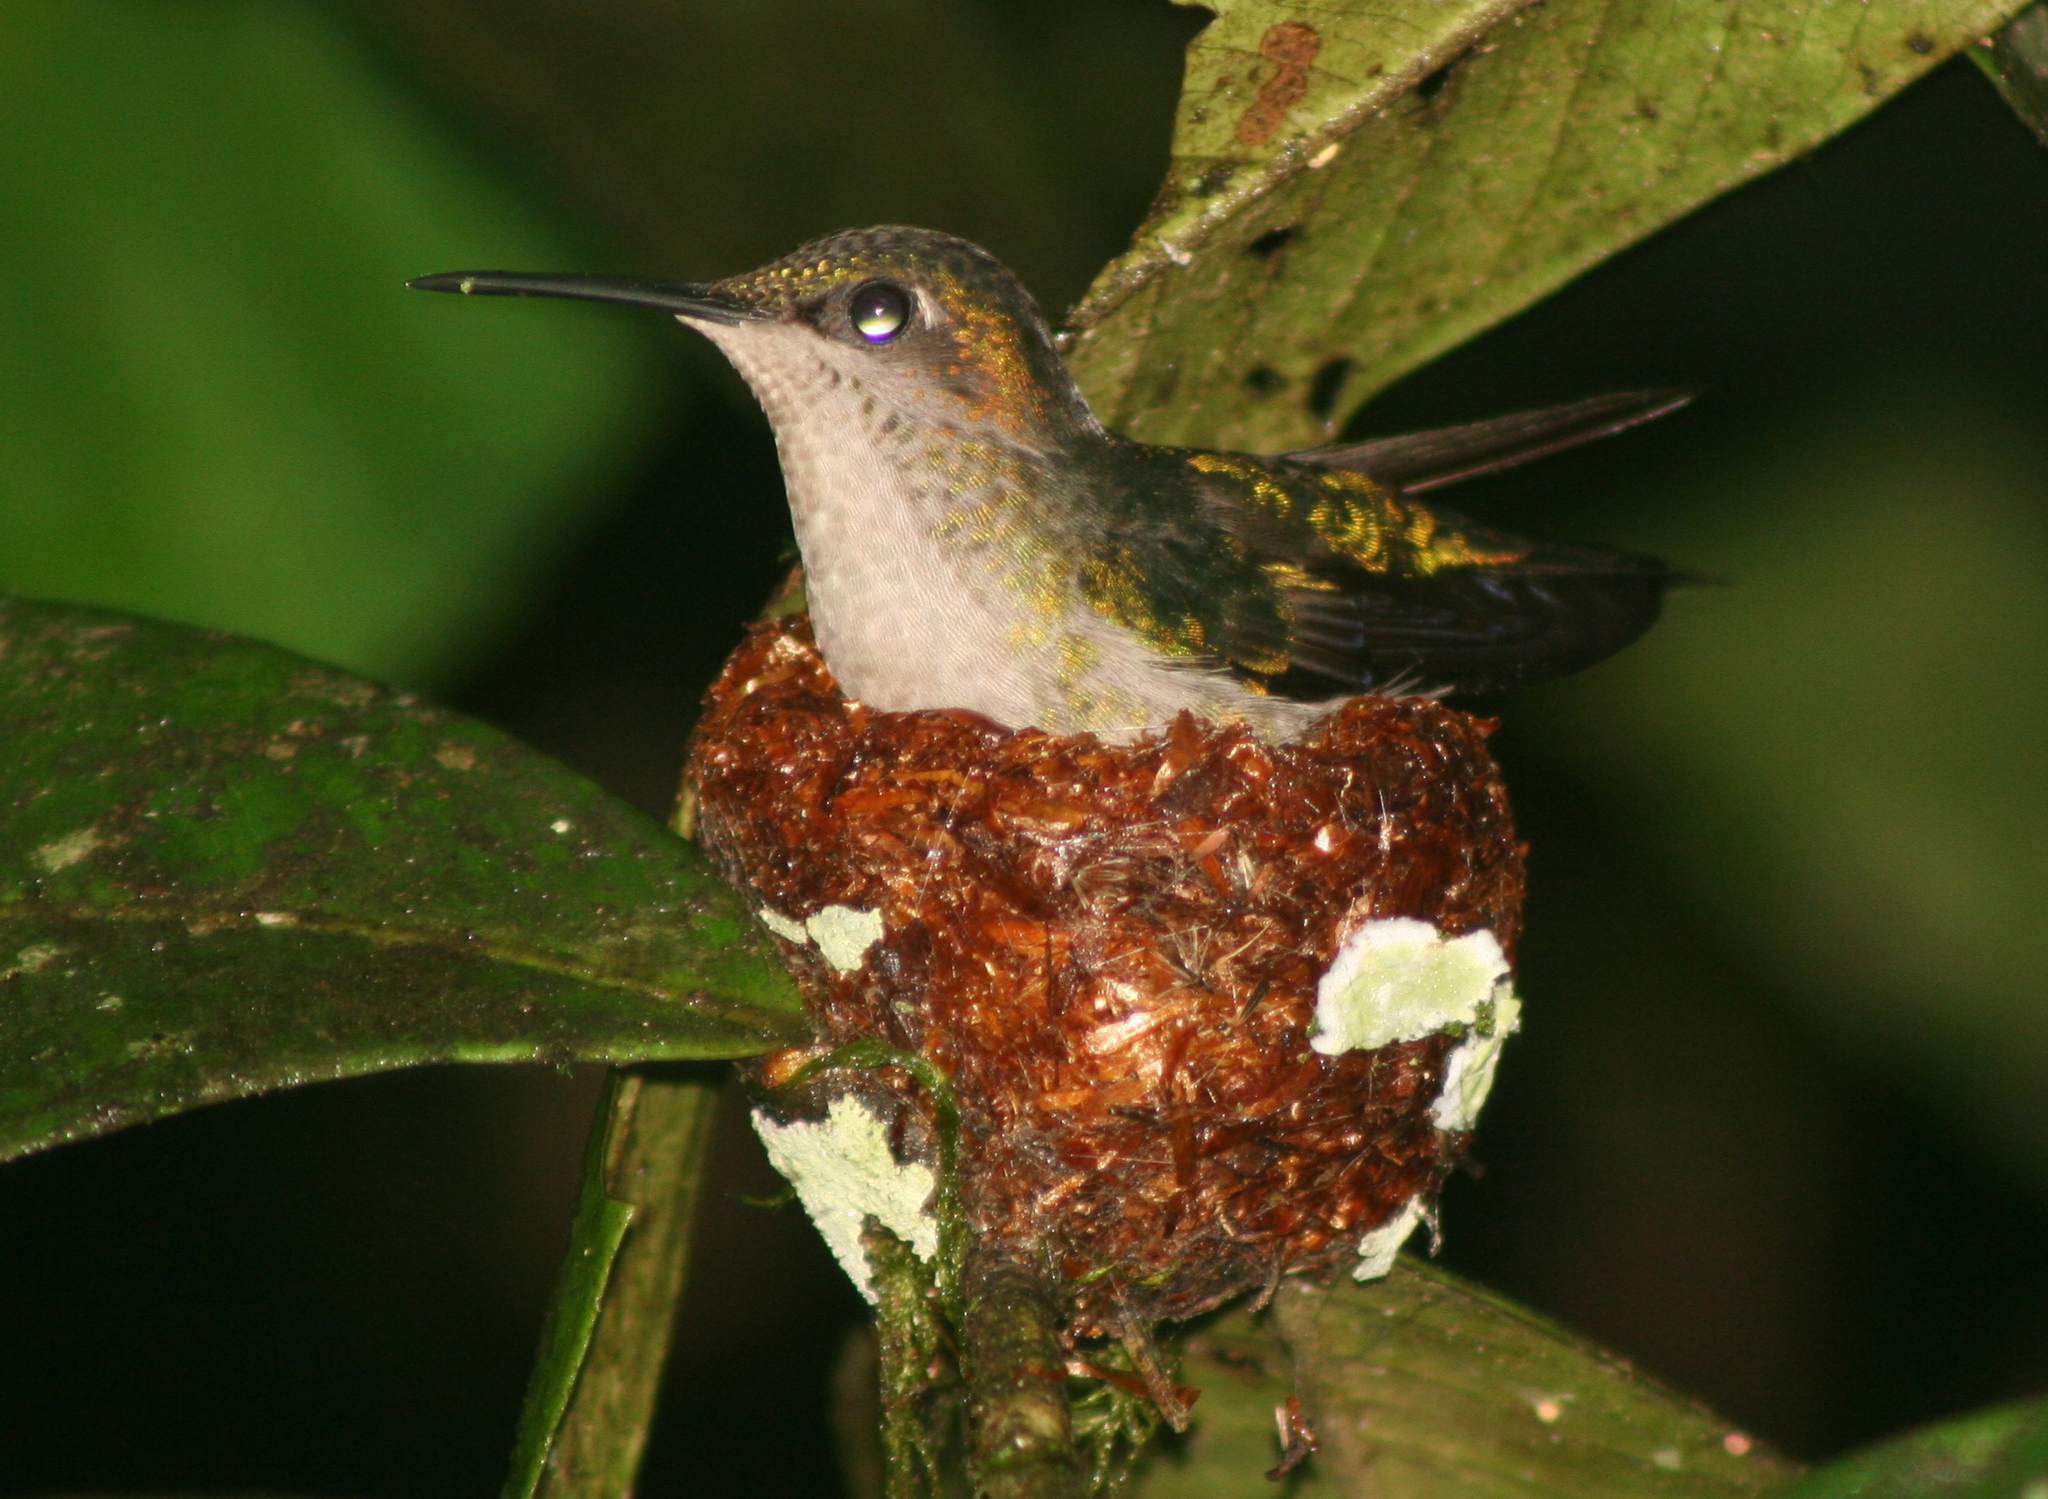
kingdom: Animalia
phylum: Chordata
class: Aves
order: Apodiformes
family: Trochilidae
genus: Thalurania
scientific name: Thalurania glaucopis
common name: Violet-capped woodnymph
